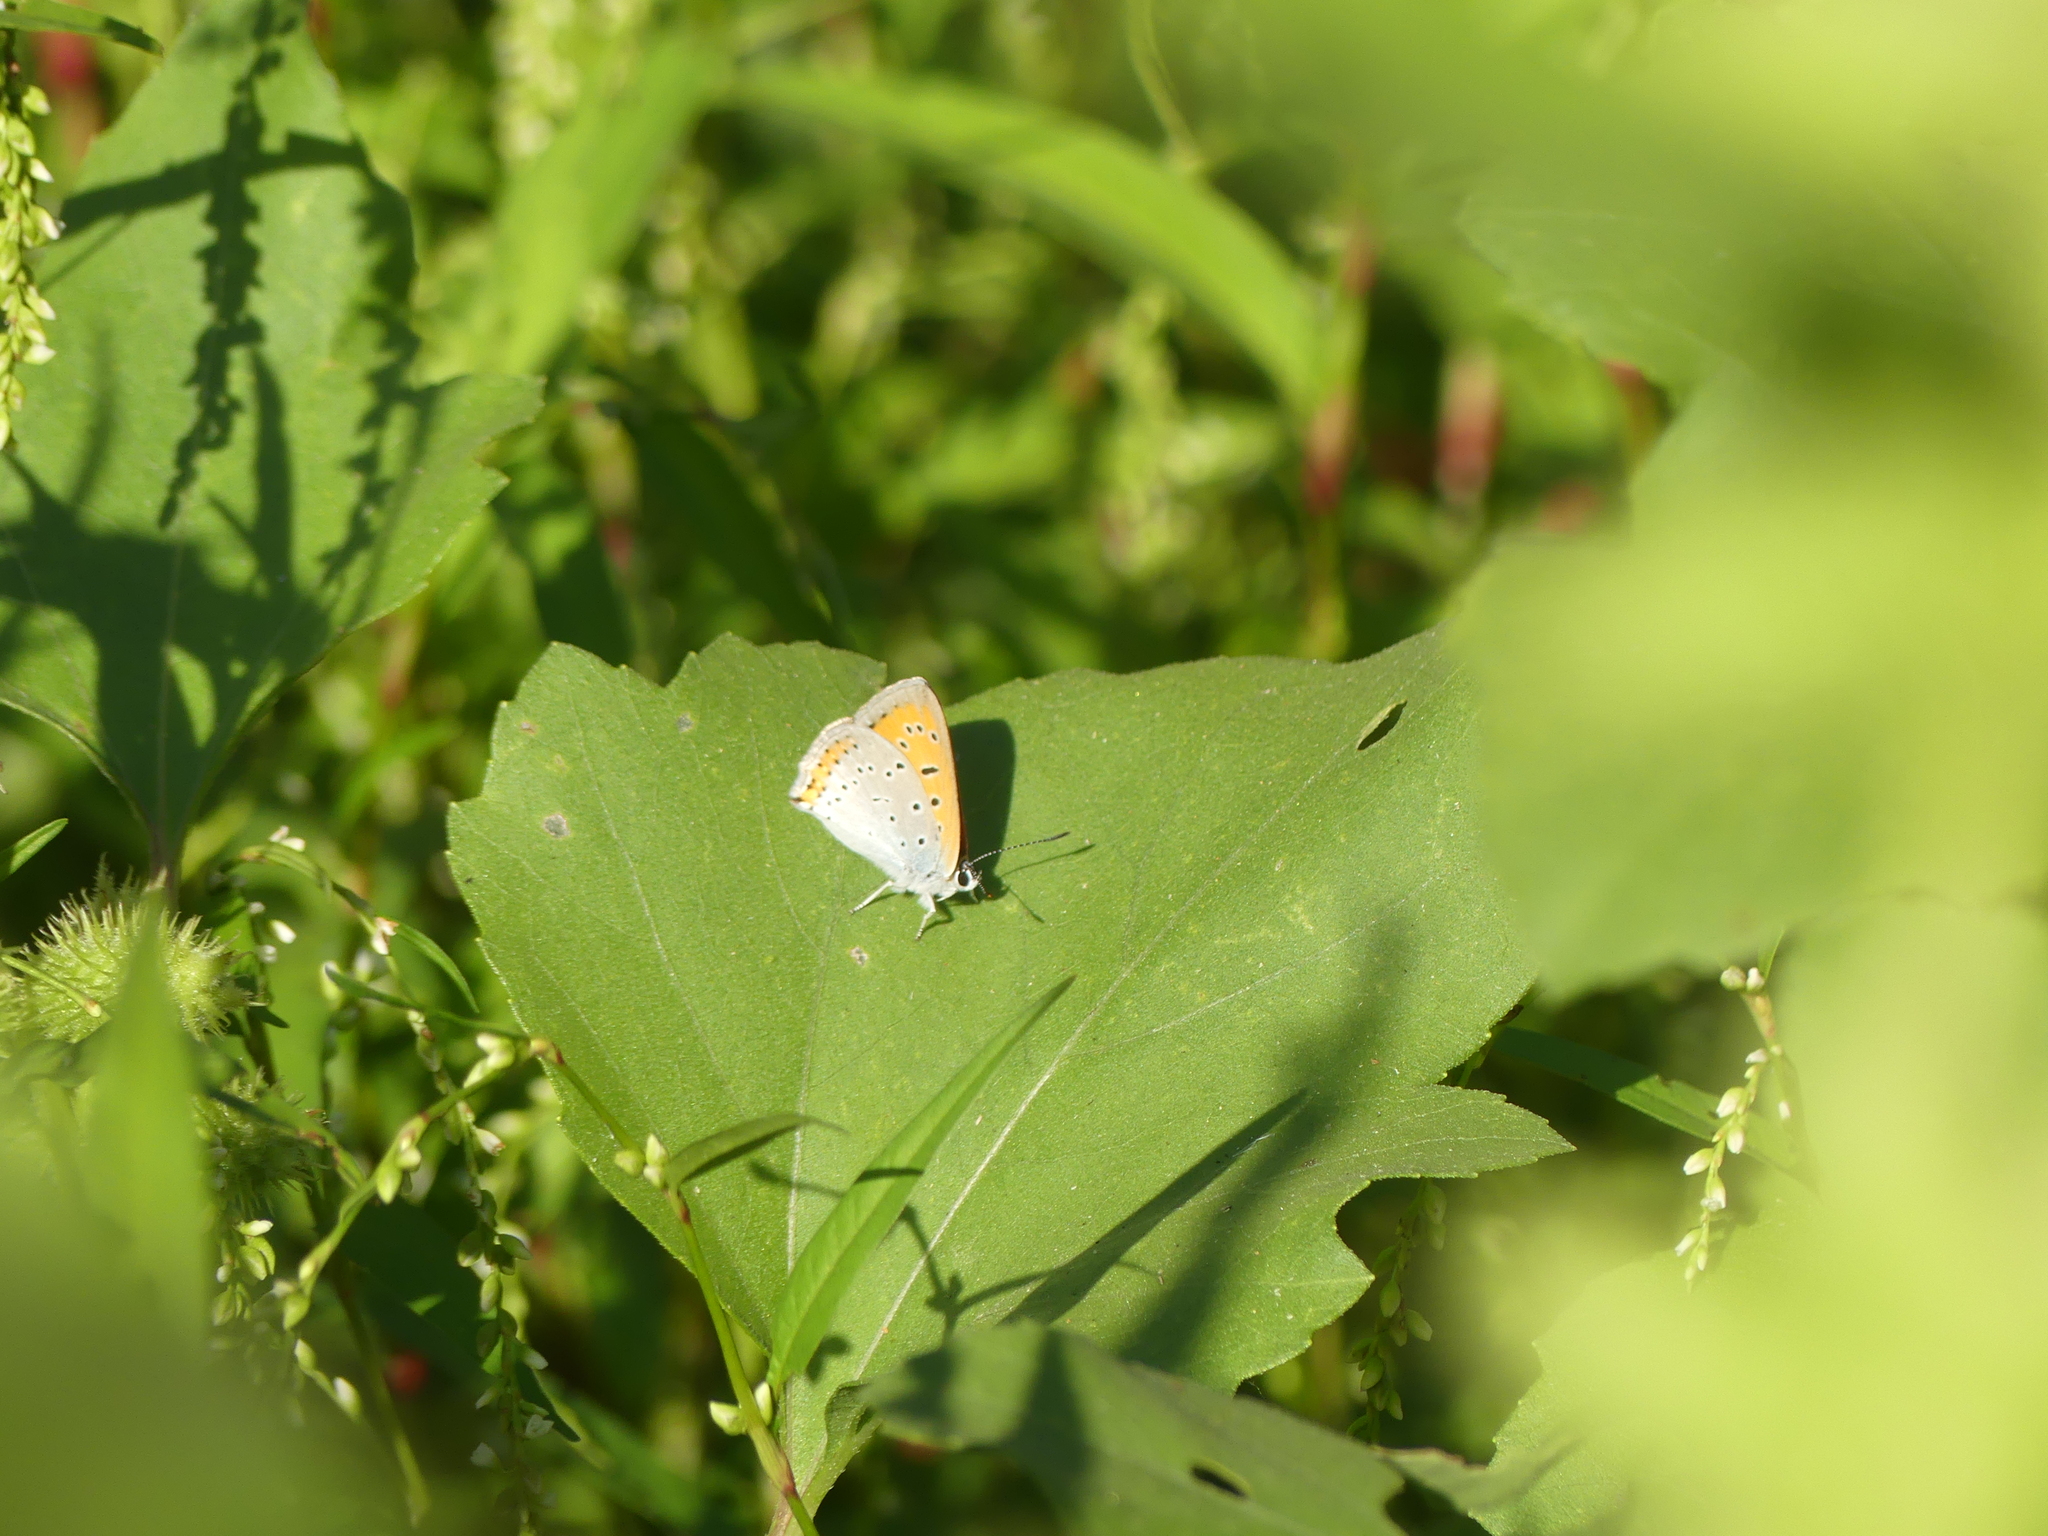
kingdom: Animalia
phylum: Arthropoda
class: Insecta
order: Lepidoptera
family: Lycaenidae
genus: Lycaena
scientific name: Lycaena dispar
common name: Large copper
